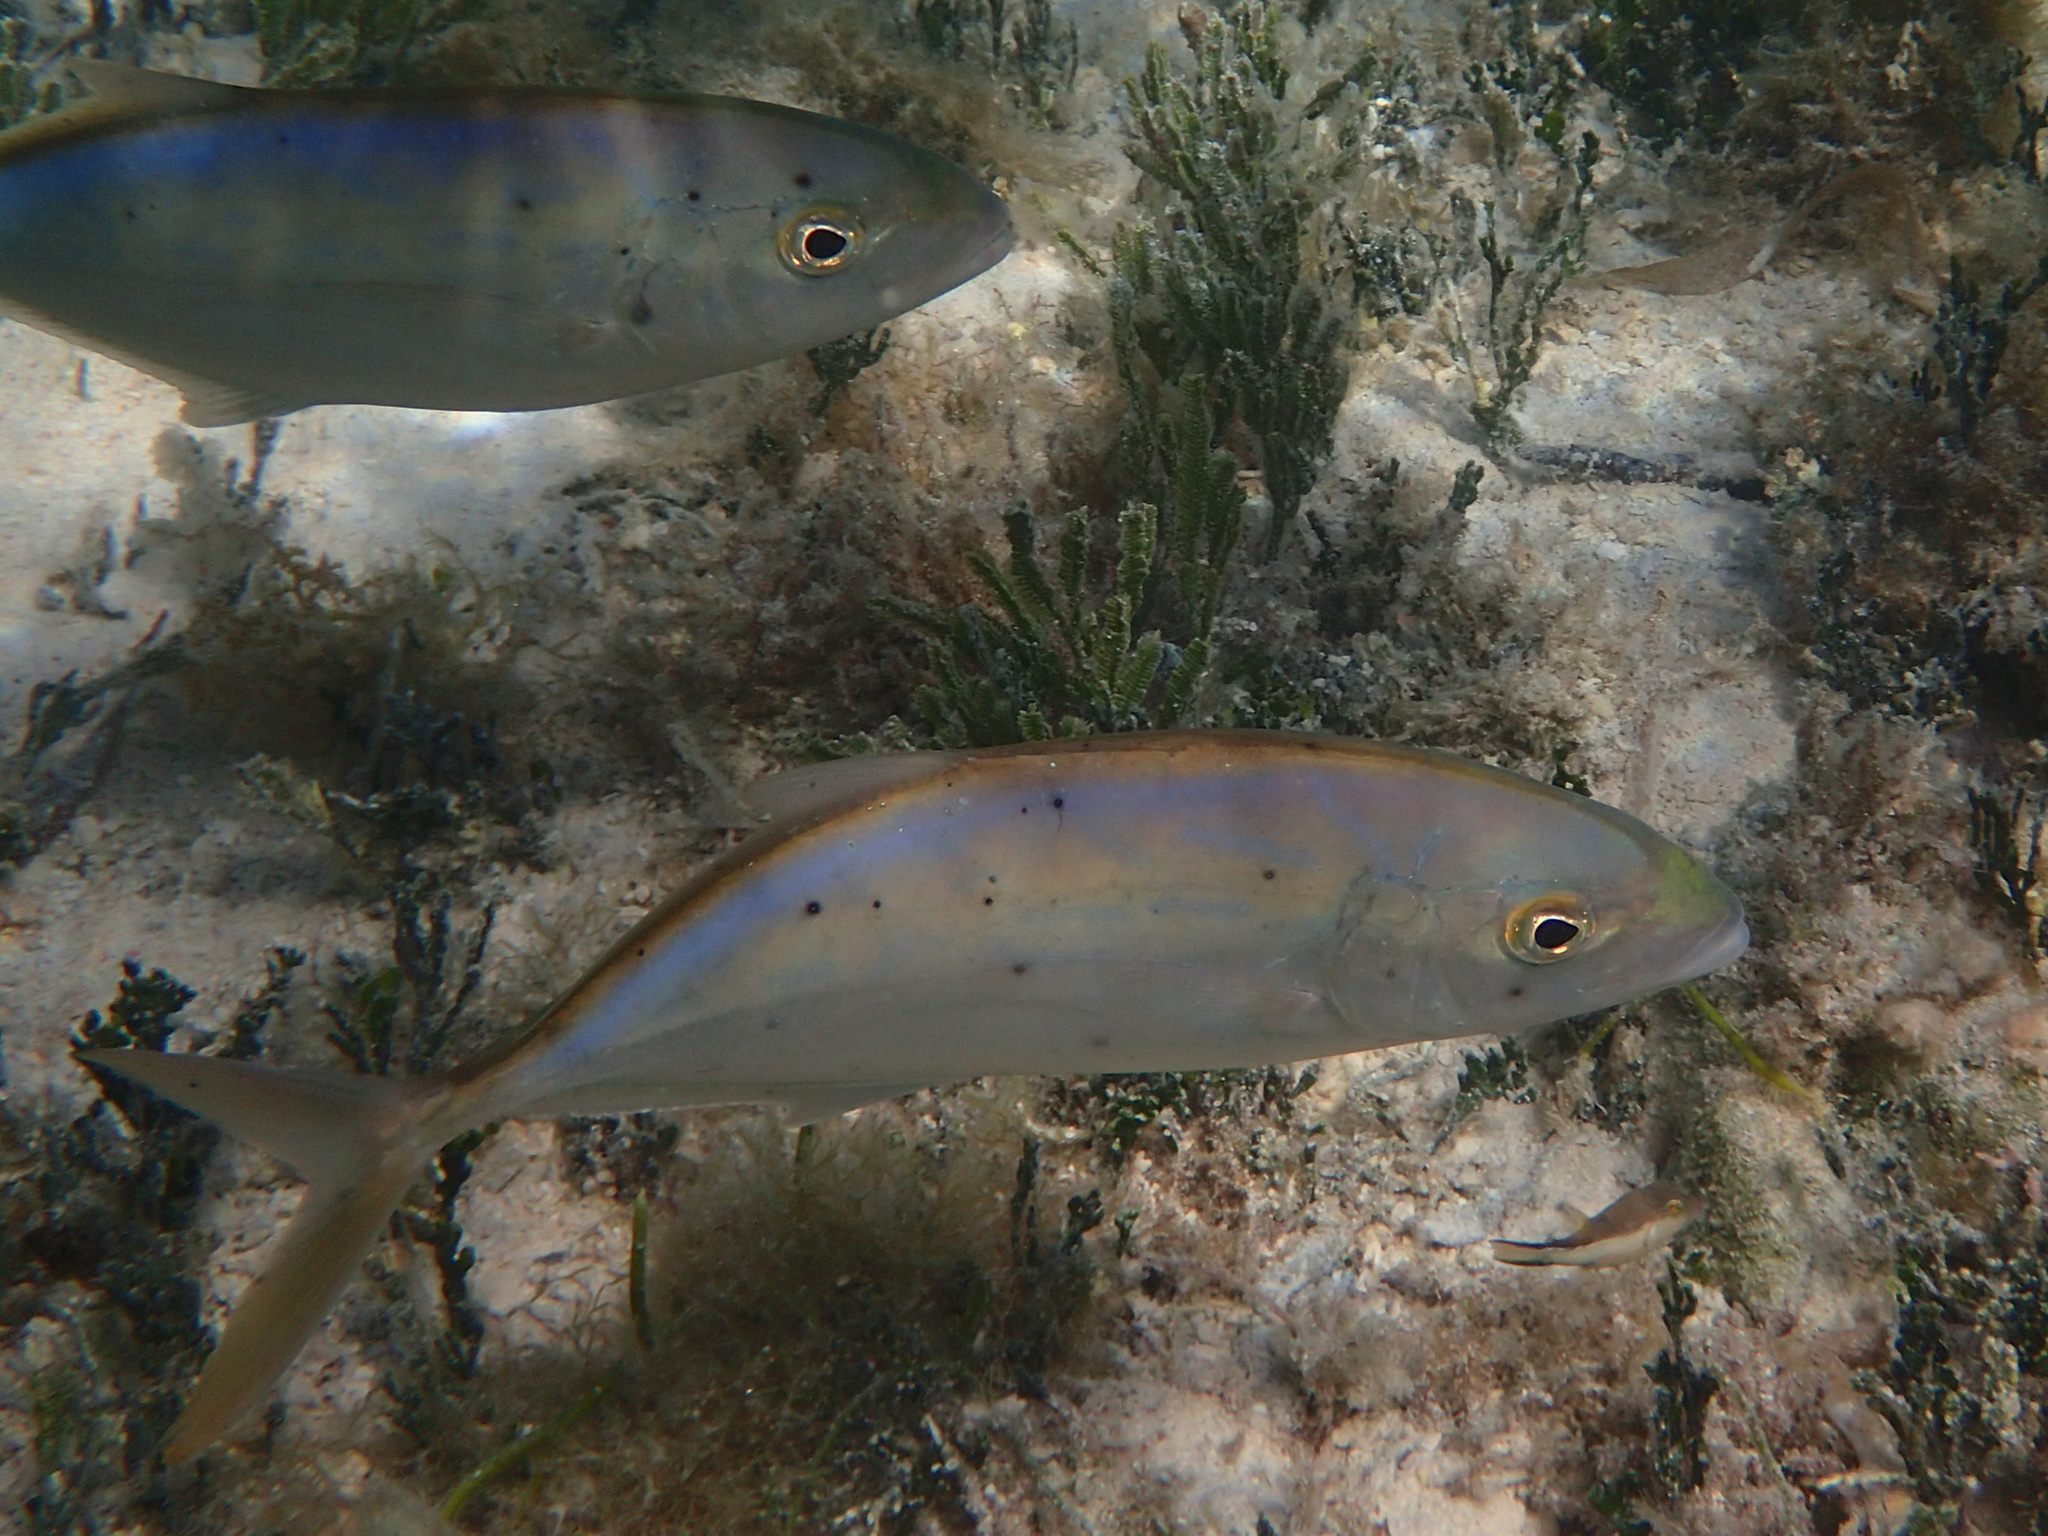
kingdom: Animalia
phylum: Chordata
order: Perciformes
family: Carangidae
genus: Caranx
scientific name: Caranx ruber
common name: Bar jack
